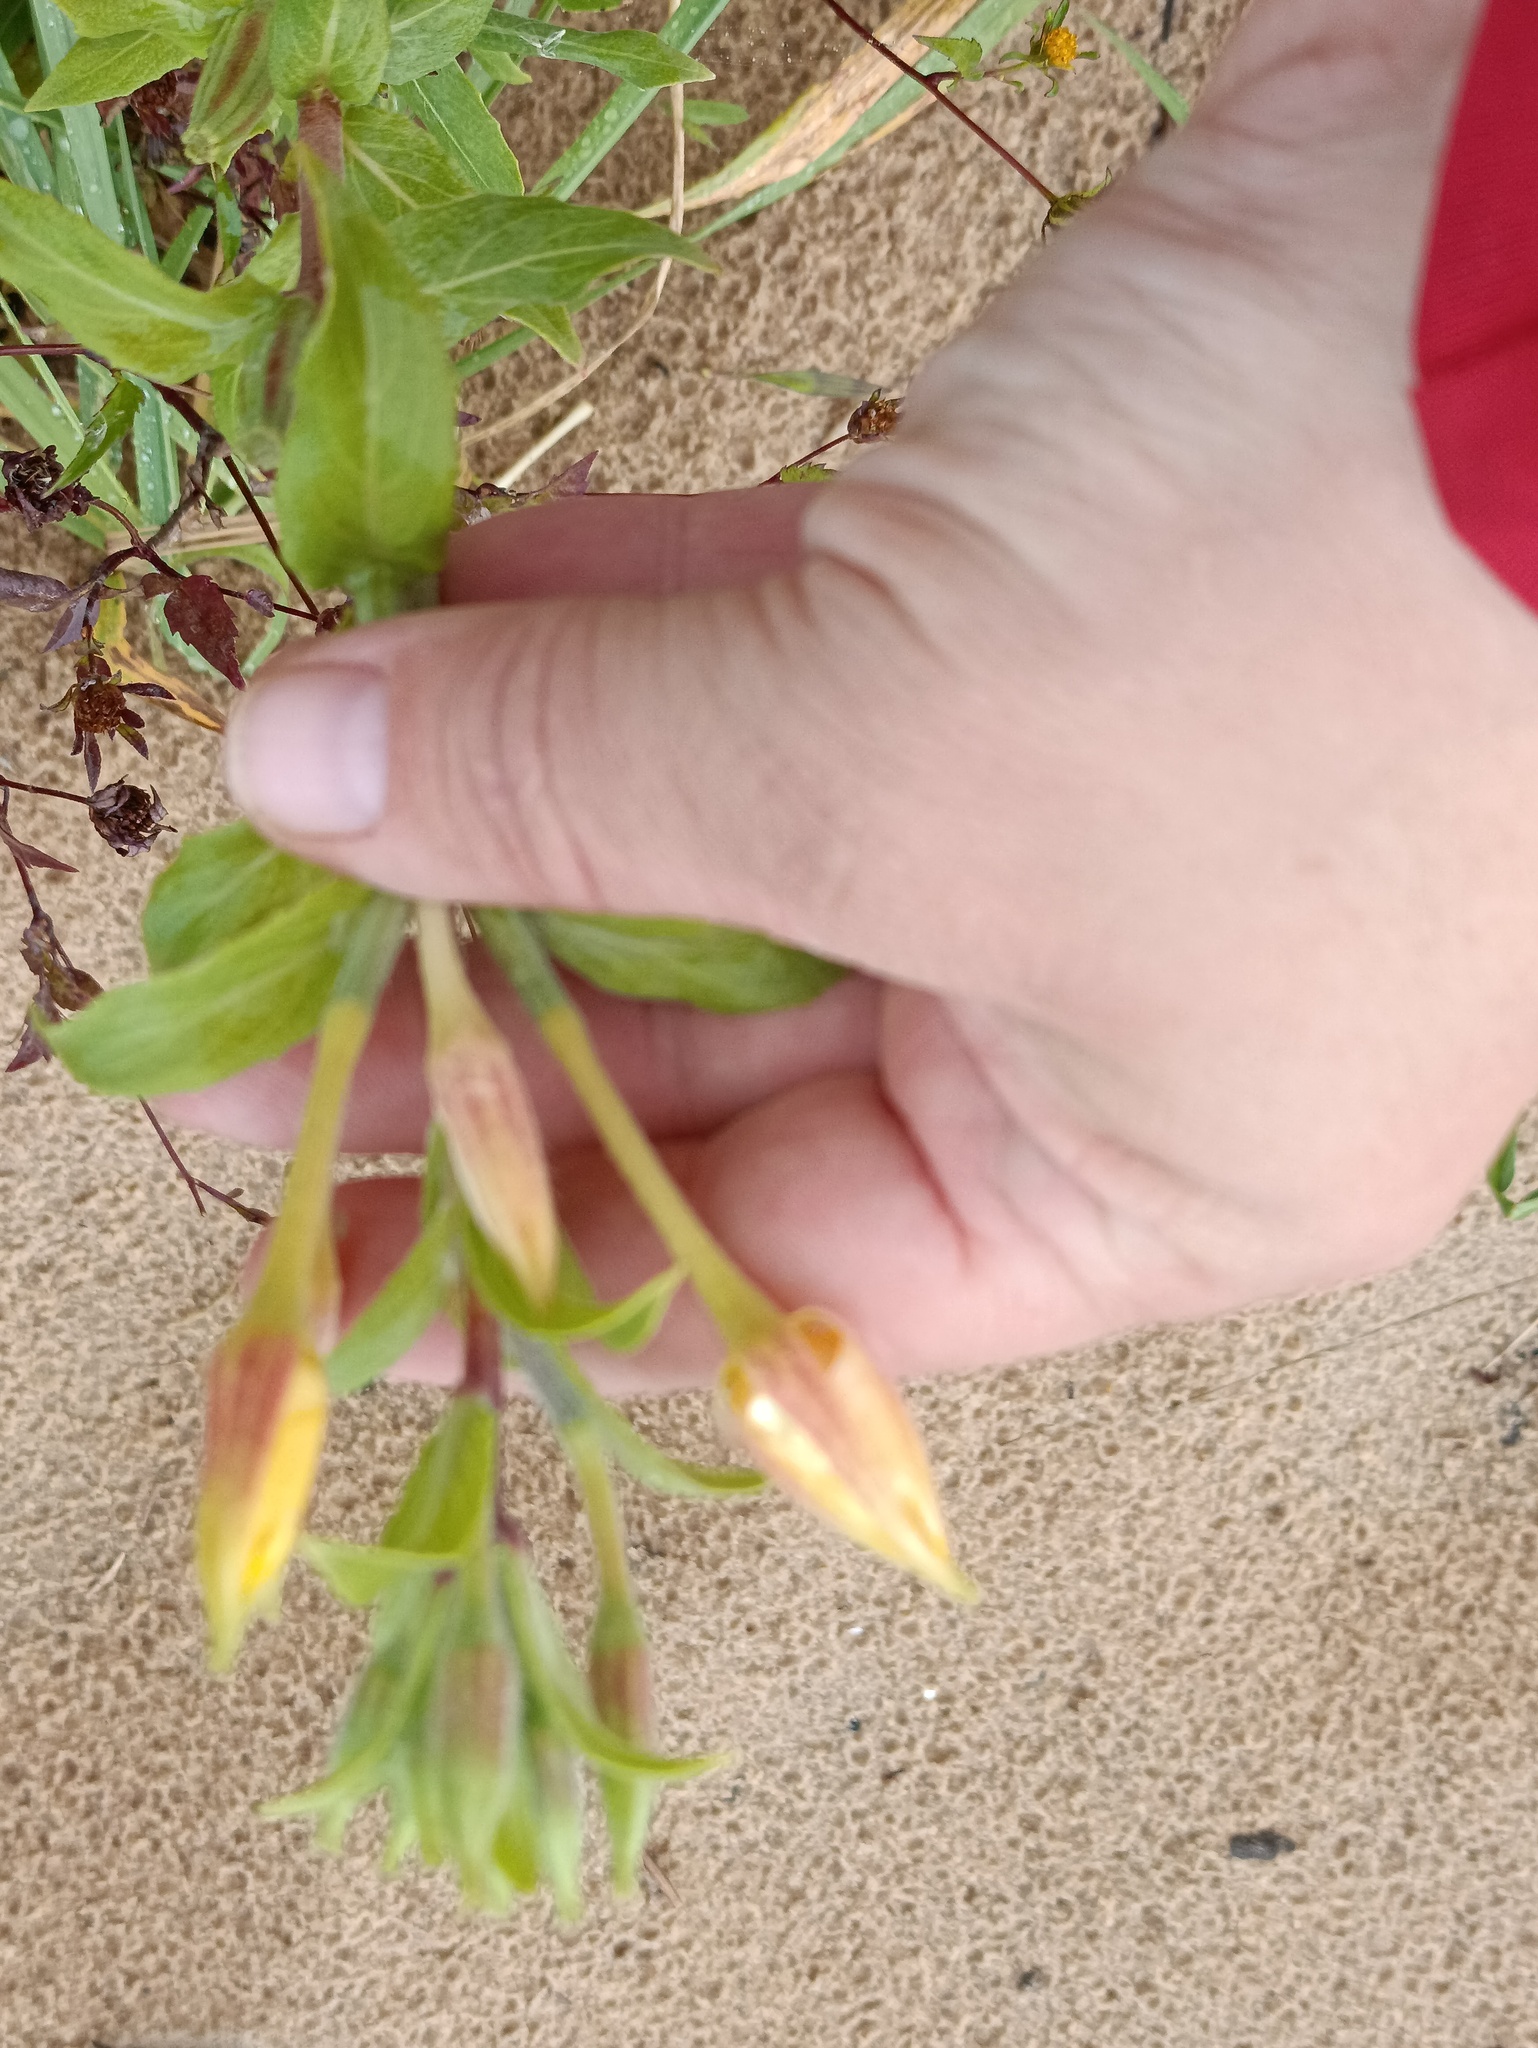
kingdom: Plantae
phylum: Tracheophyta
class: Magnoliopsida
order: Myrtales
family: Onagraceae
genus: Oenothera
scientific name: Oenothera villosa
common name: Hairy evening-primrose
